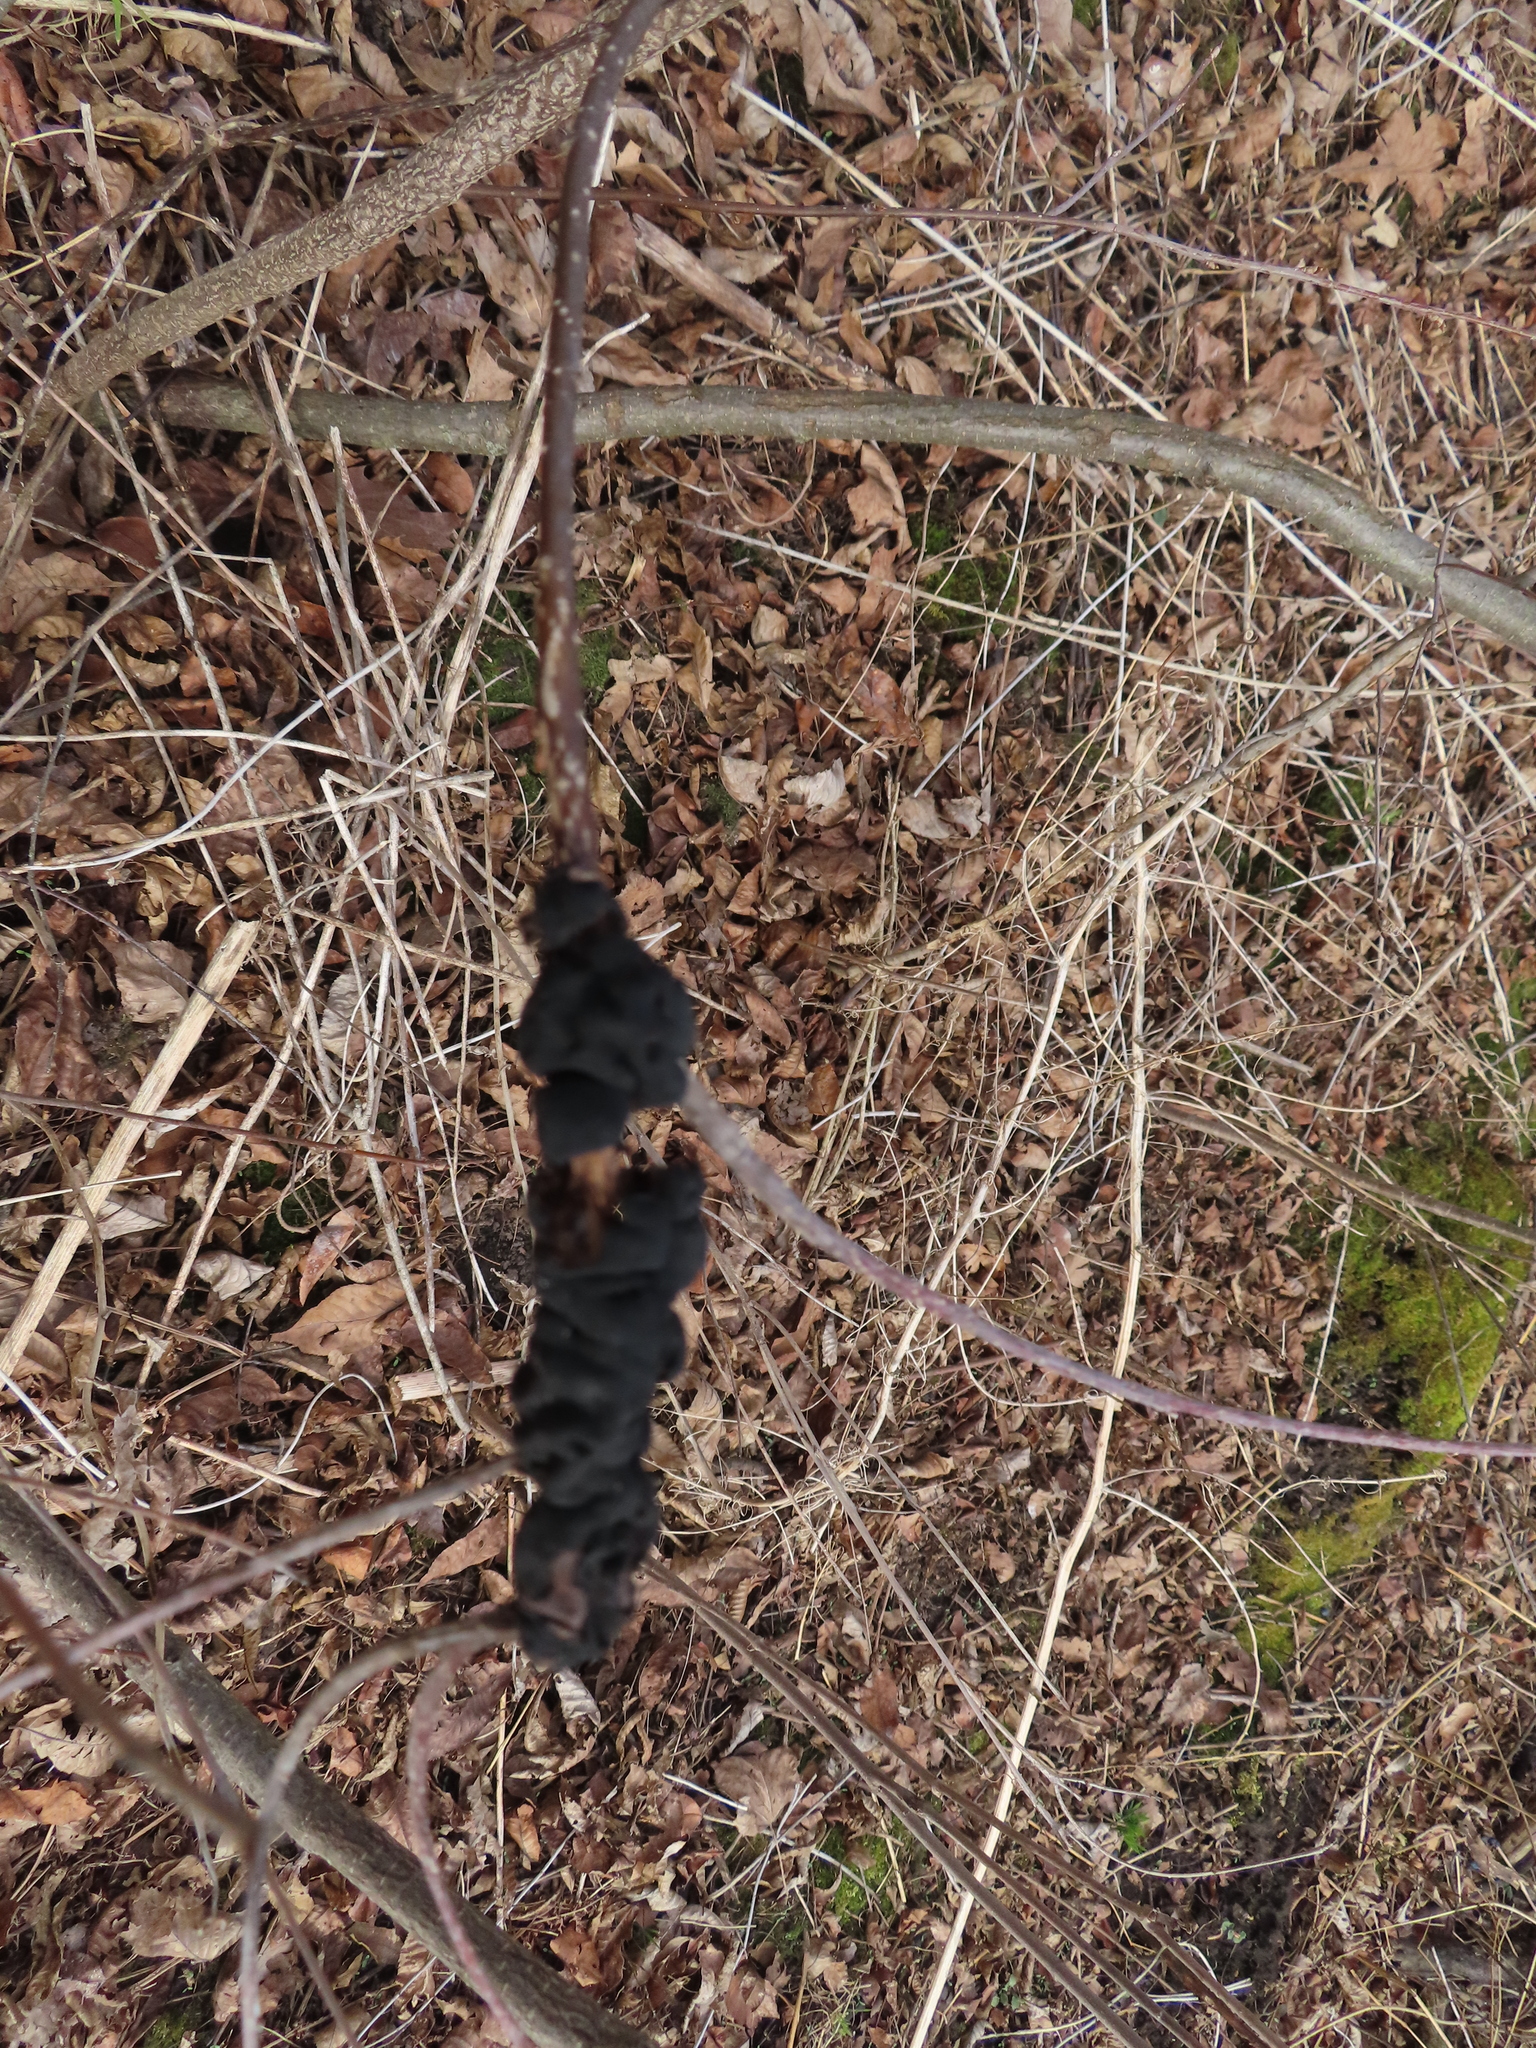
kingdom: Fungi
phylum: Ascomycota
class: Dothideomycetes
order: Venturiales
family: Venturiaceae
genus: Apiosporina
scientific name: Apiosporina morbosa
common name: Black knot
